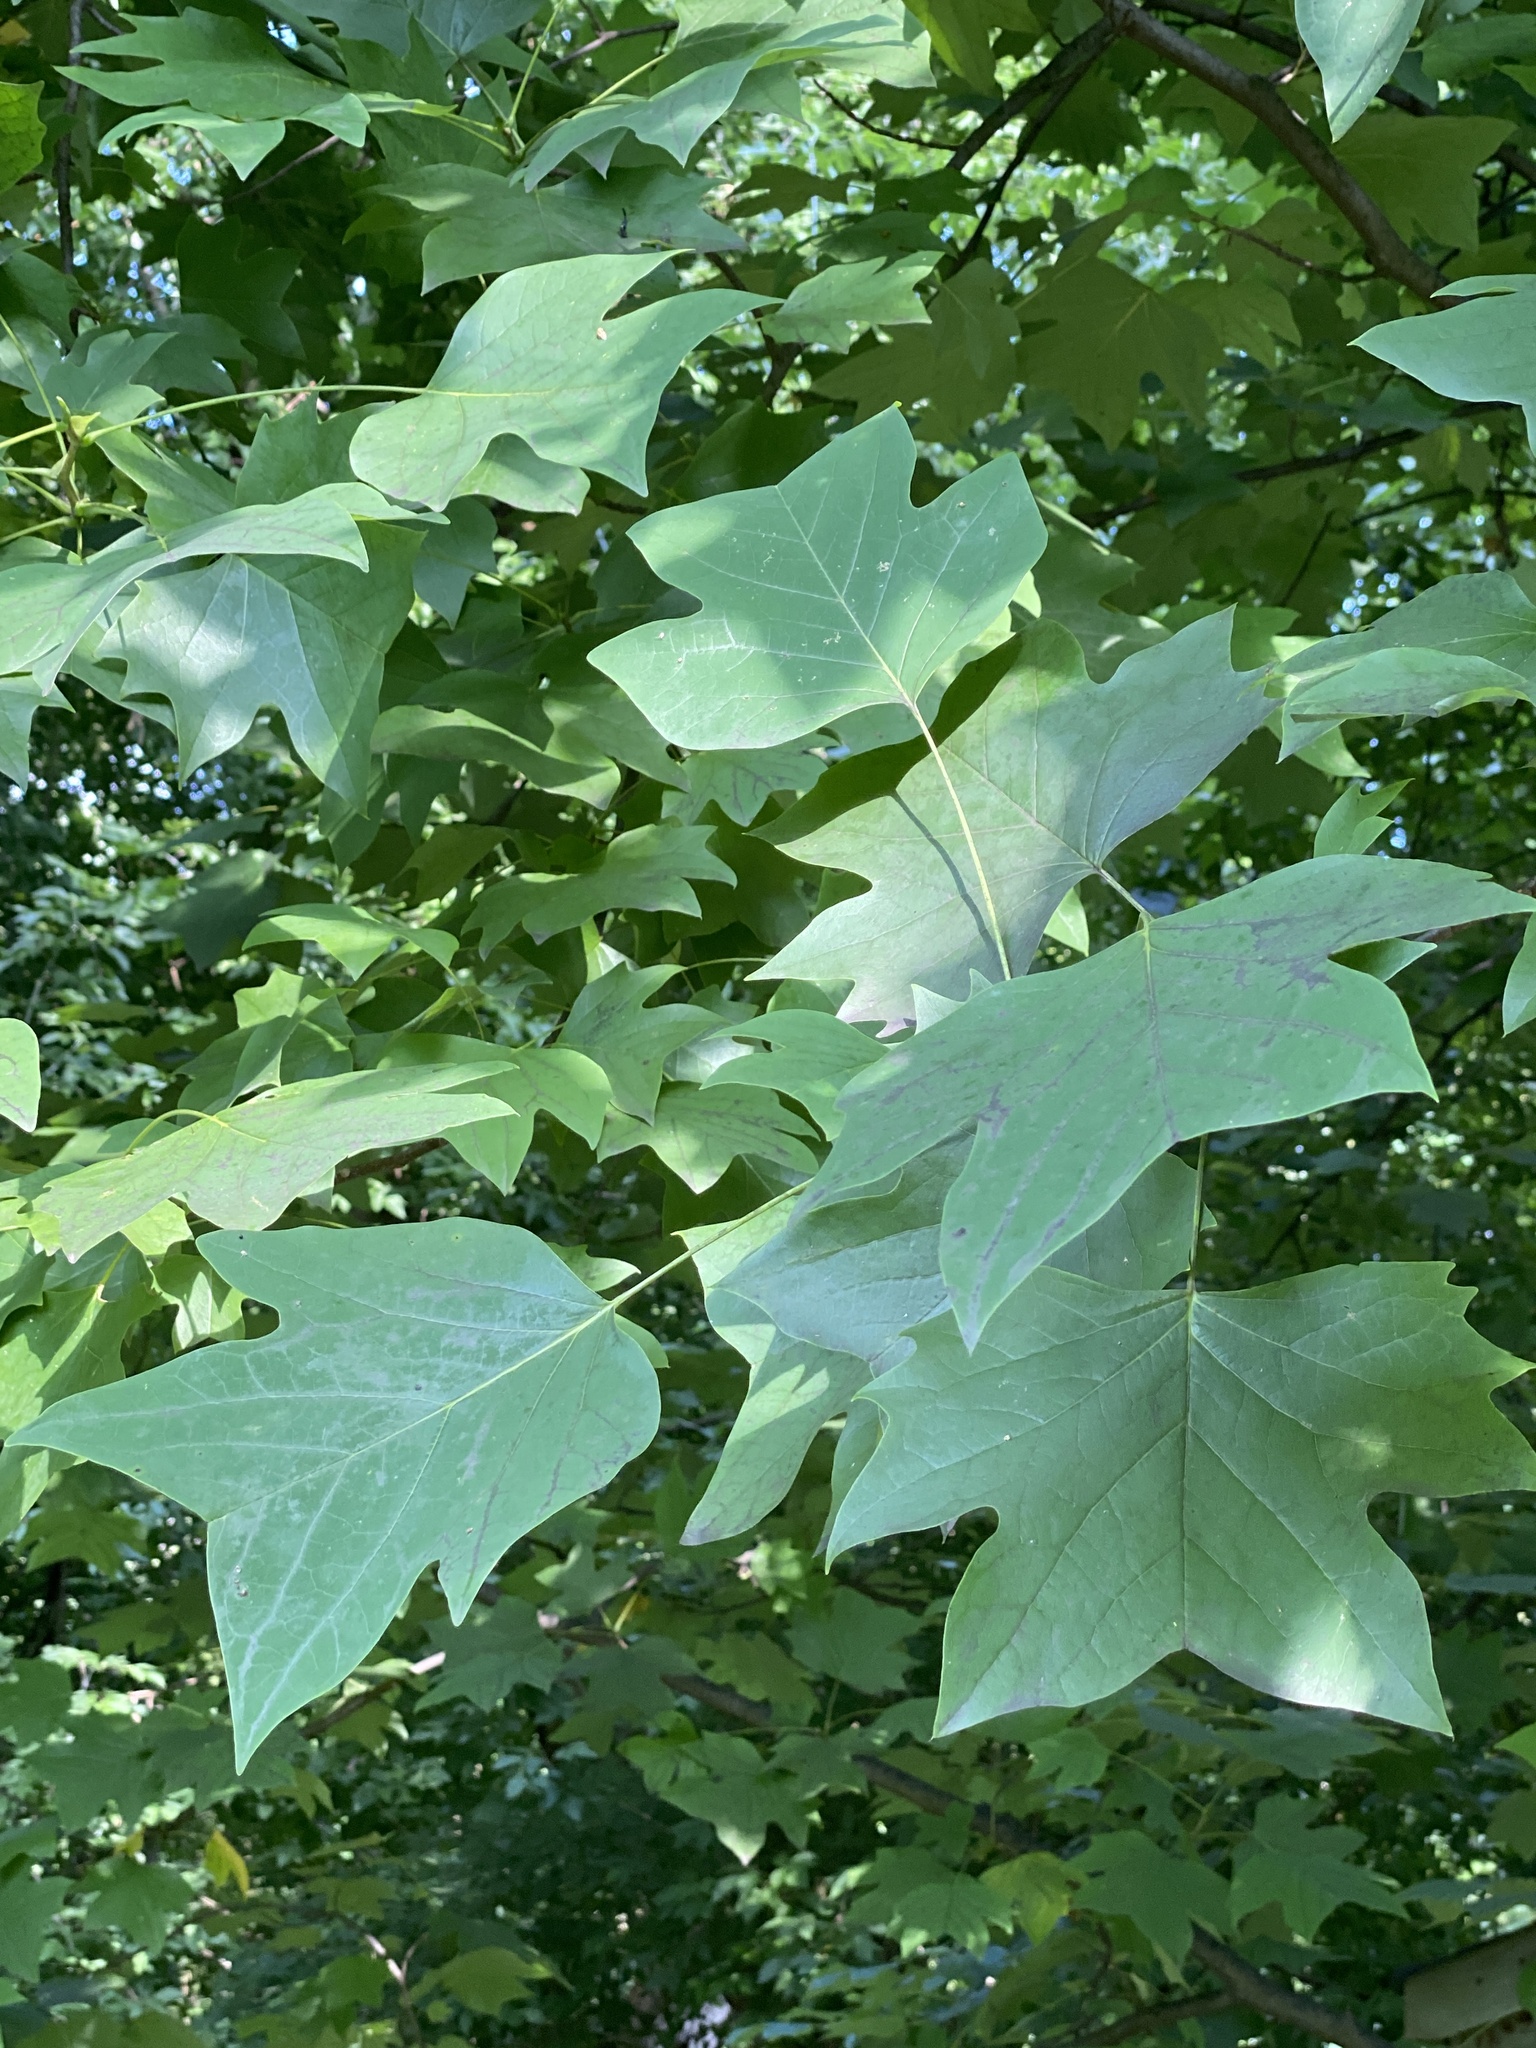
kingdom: Plantae
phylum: Tracheophyta
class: Magnoliopsida
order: Magnoliales
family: Magnoliaceae
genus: Liriodendron
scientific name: Liriodendron tulipifera
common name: Tulip tree
